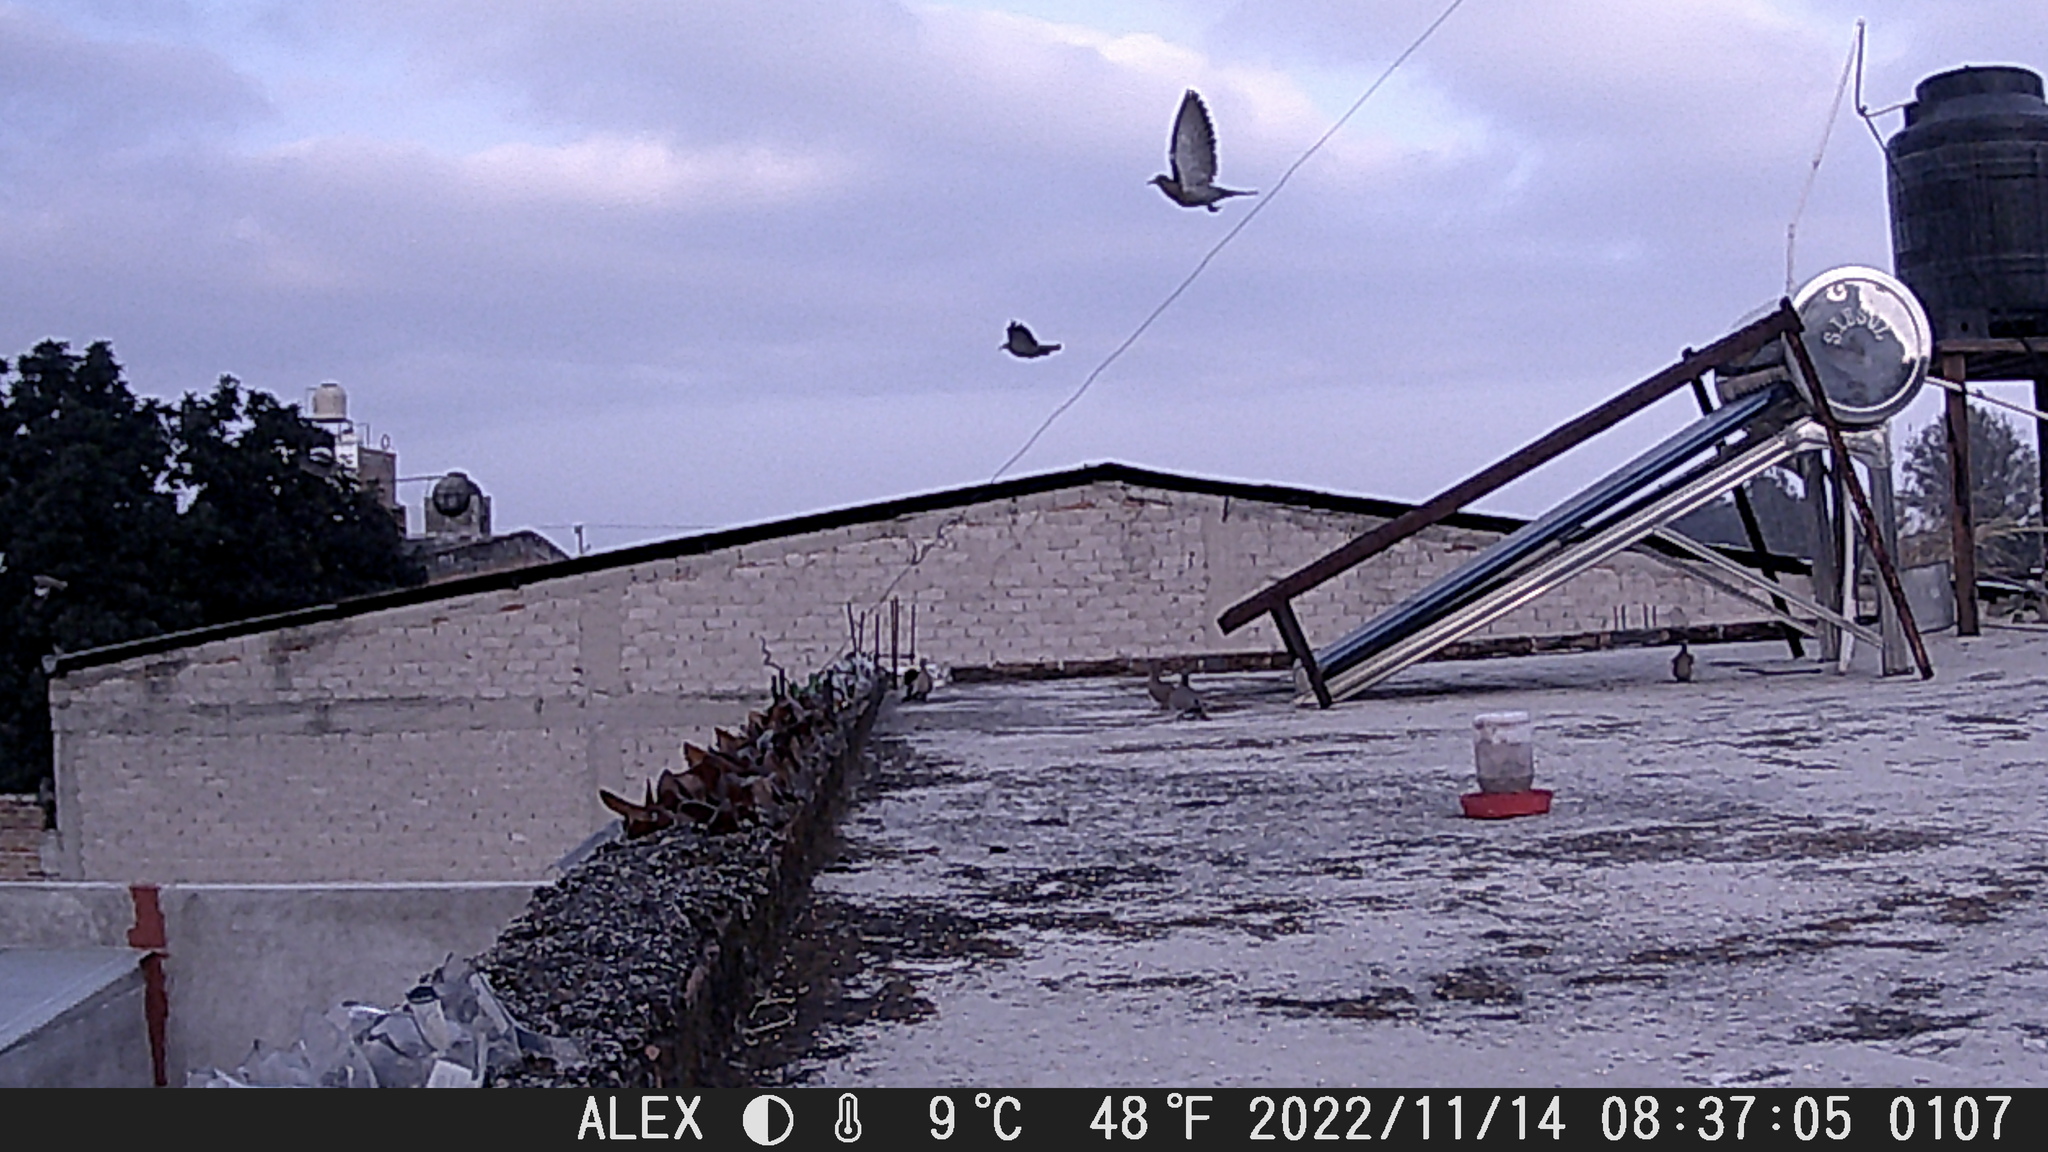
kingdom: Animalia
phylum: Chordata
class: Aves
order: Columbiformes
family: Columbidae
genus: Zenaida
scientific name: Zenaida asiatica
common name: White-winged dove
